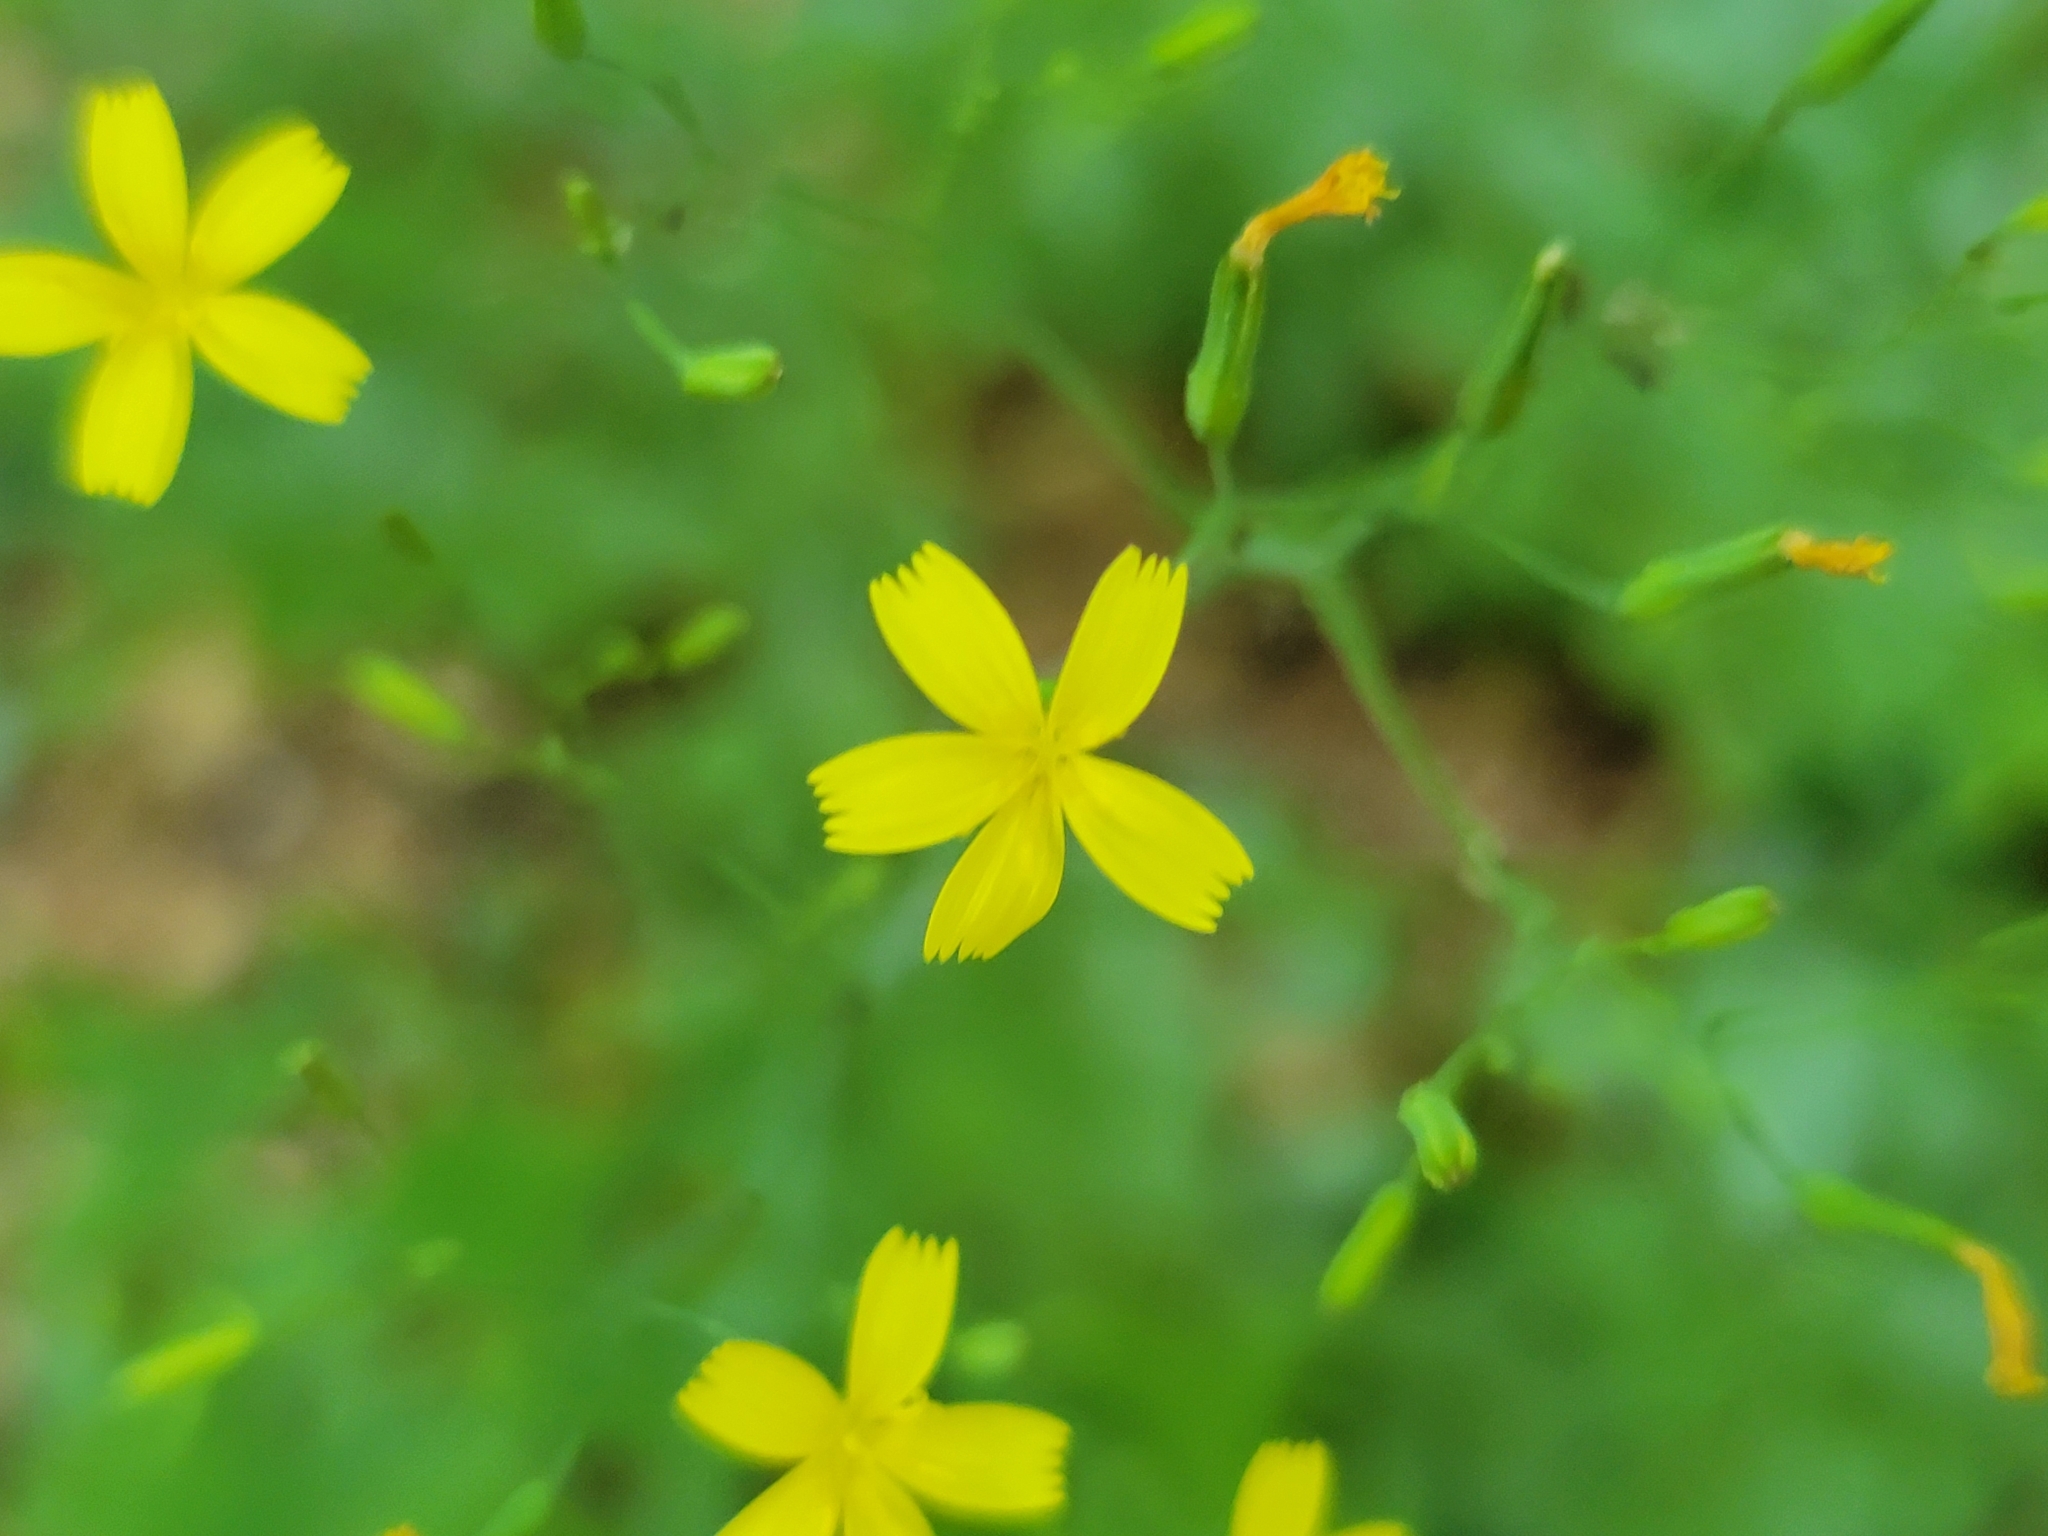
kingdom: Plantae
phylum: Tracheophyta
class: Magnoliopsida
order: Asterales
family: Asteraceae
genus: Mycelis
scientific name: Mycelis muralis
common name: Wall lettuce
